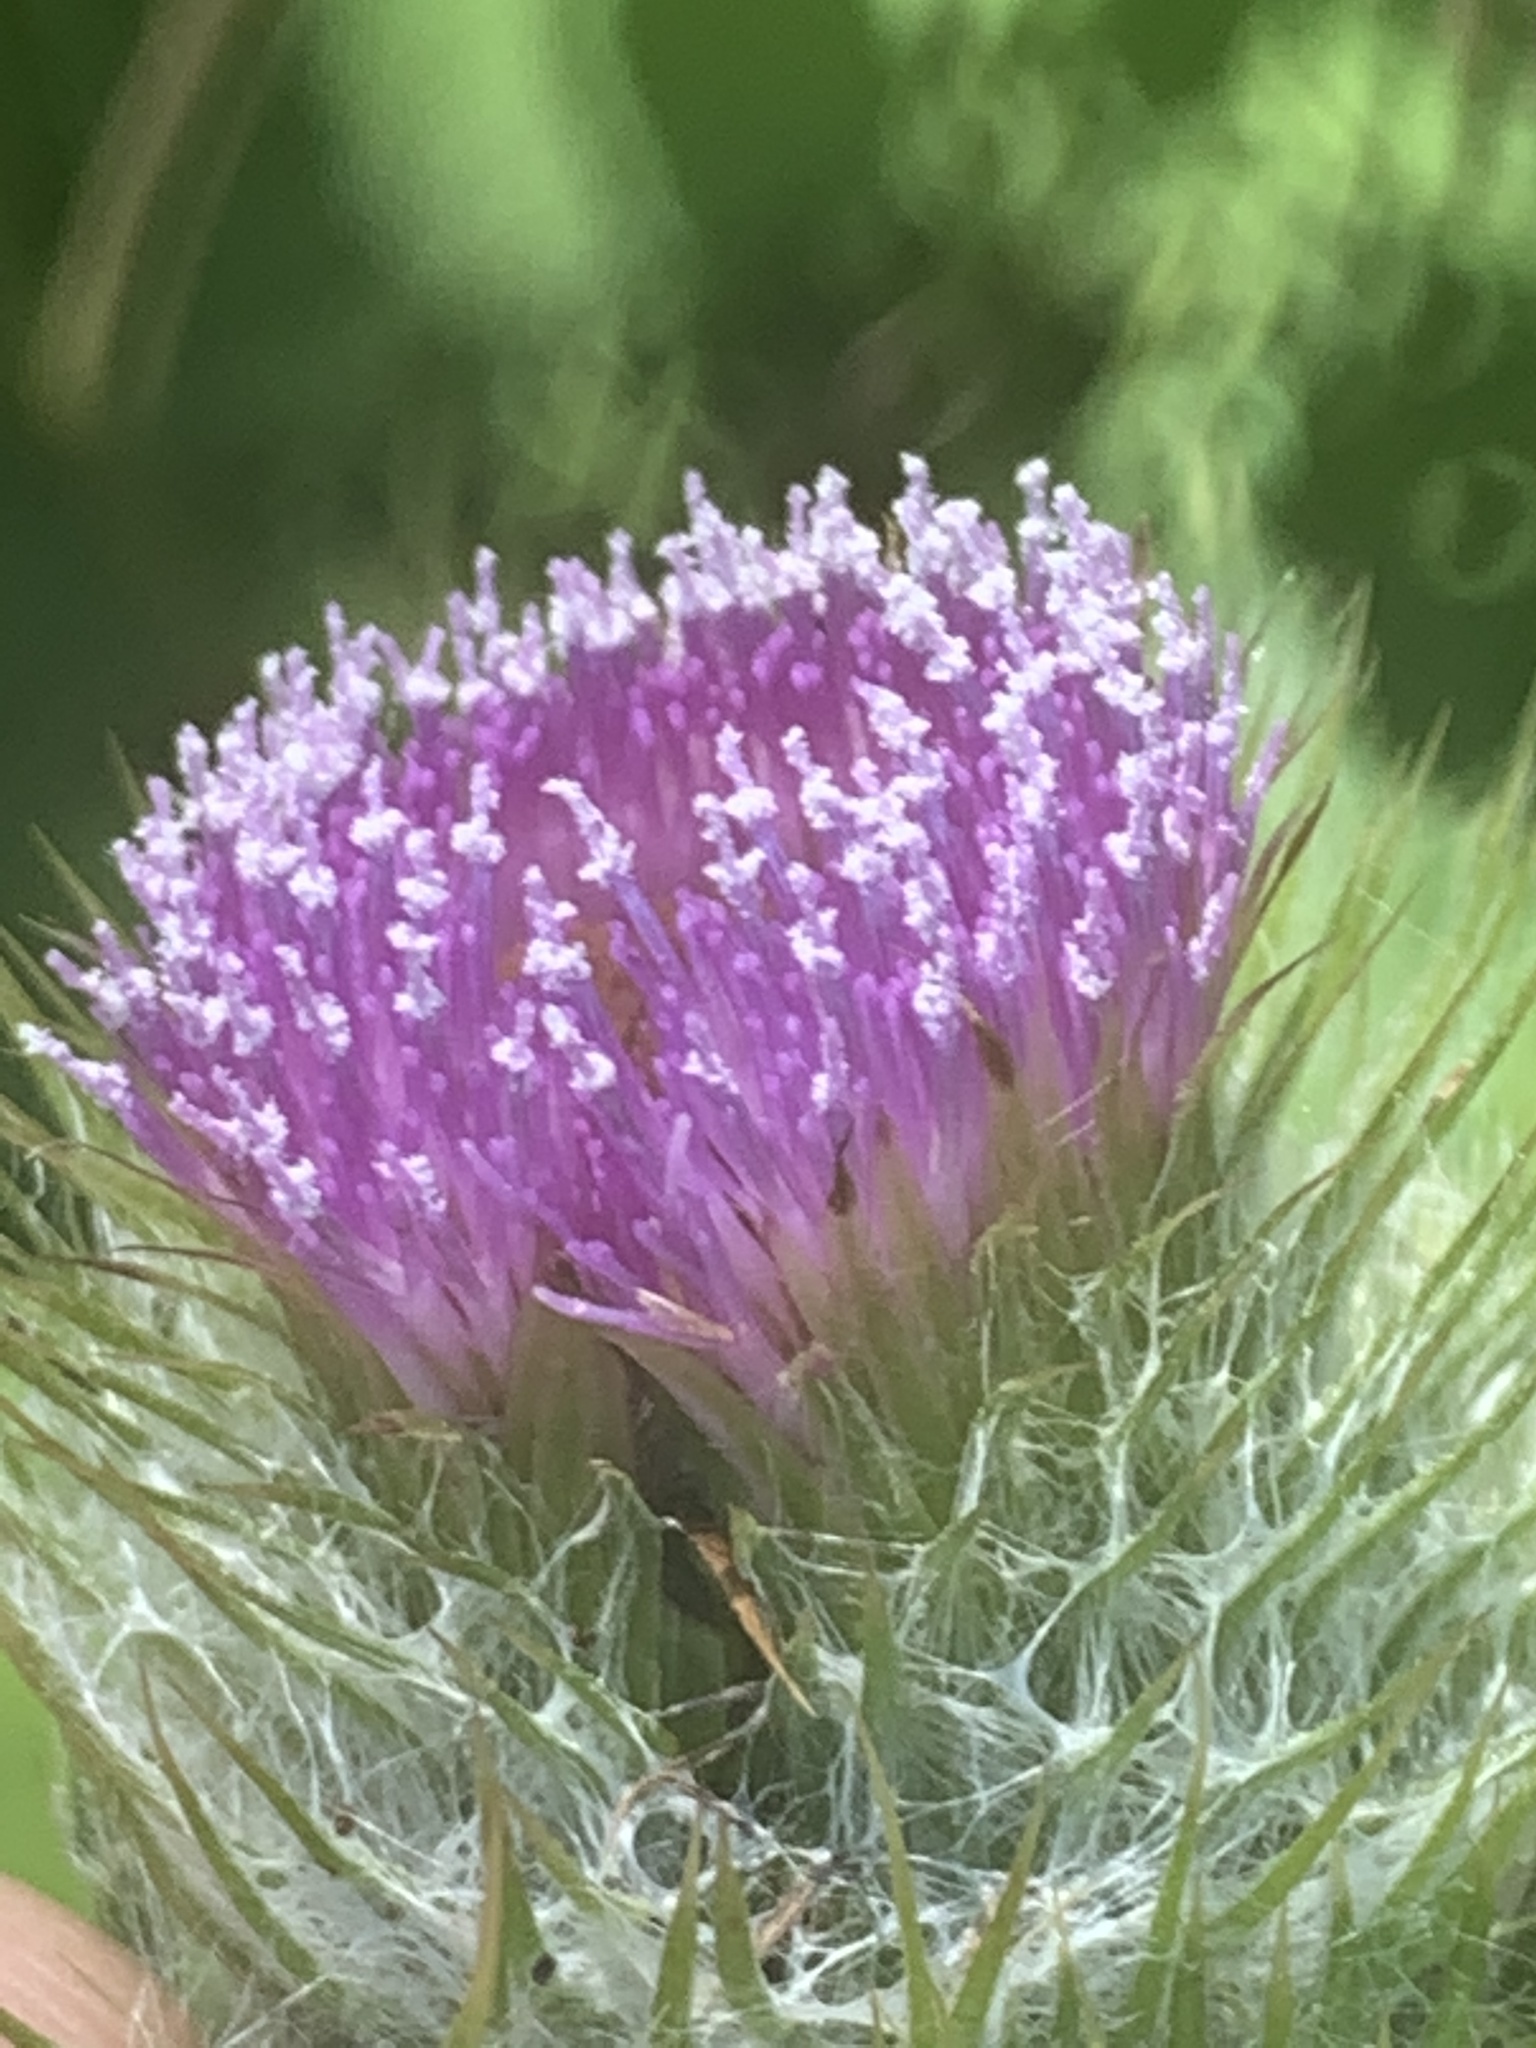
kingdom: Plantae
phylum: Tracheophyta
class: Magnoliopsida
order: Asterales
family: Asteraceae
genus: Cirsium
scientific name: Cirsium brevistylum
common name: Indian thistle
